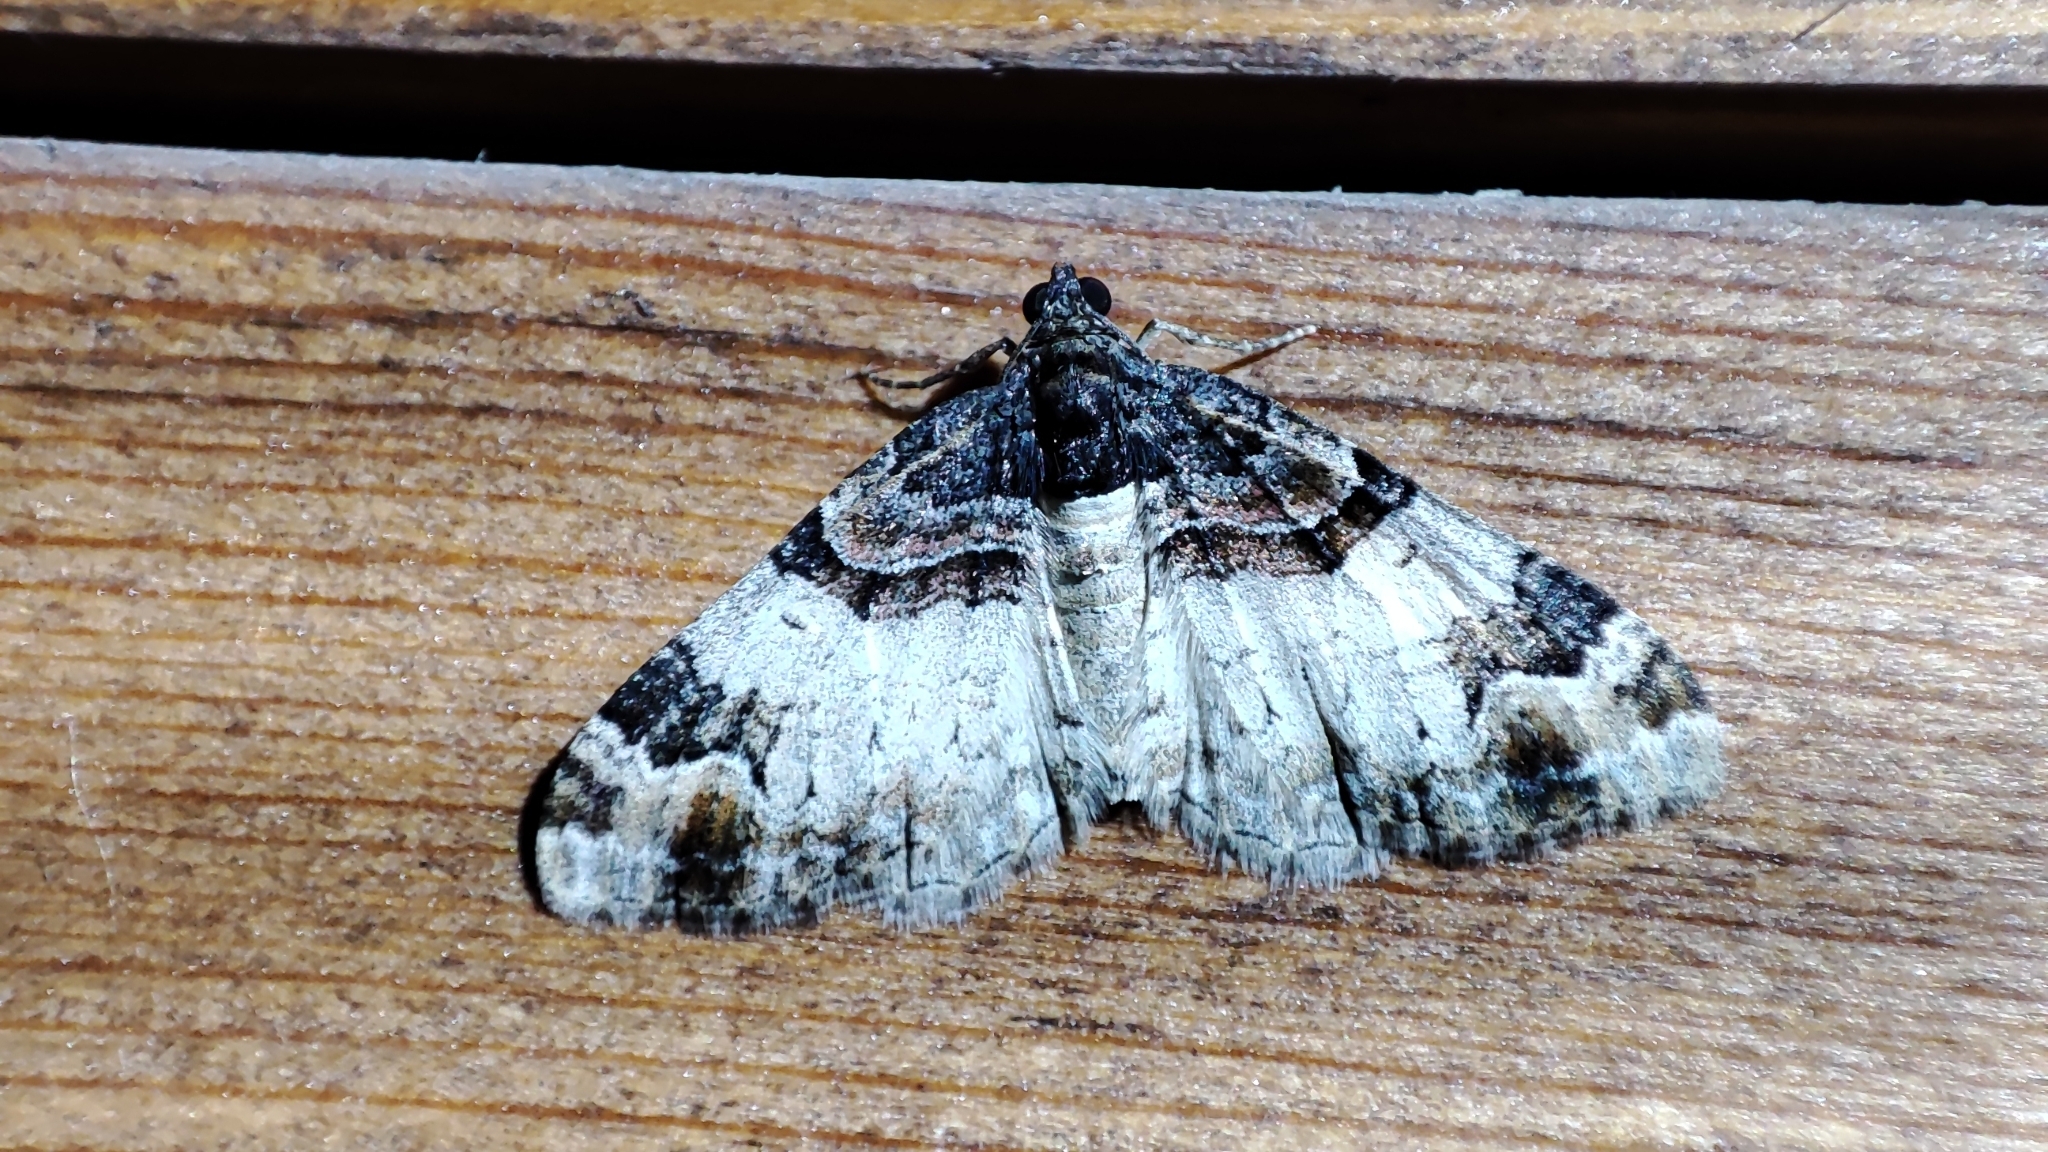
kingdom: Animalia
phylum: Arthropoda
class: Insecta
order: Lepidoptera
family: Geometridae
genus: Catarhoe
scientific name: Catarhoe cuculata
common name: Royal mantle
